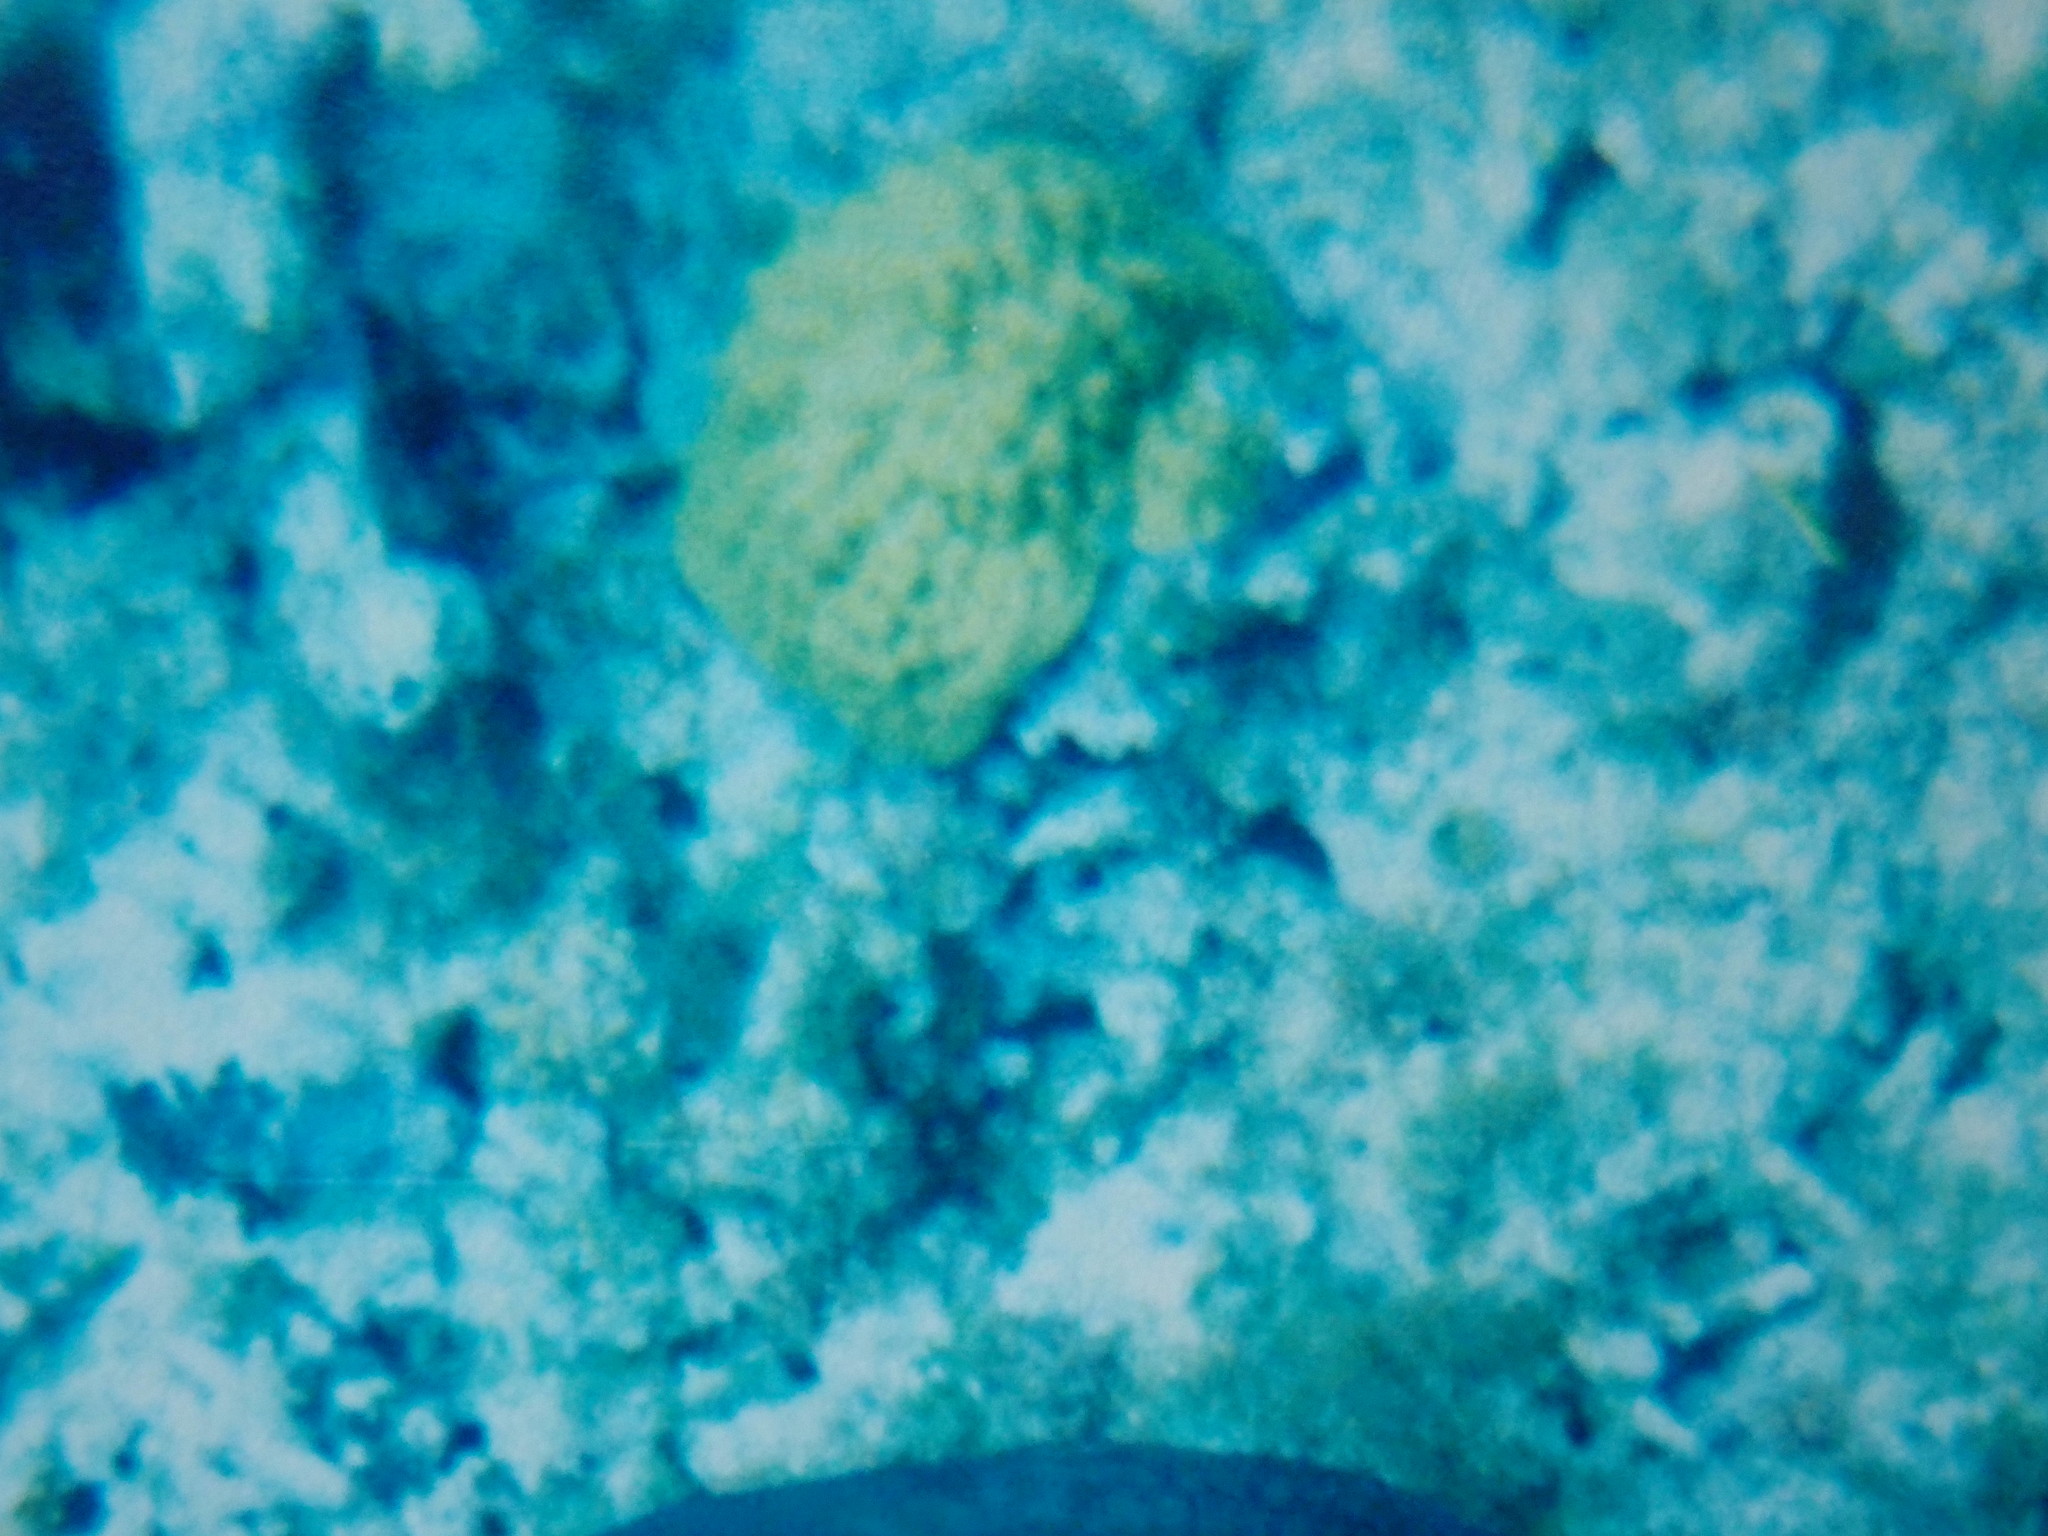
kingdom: Animalia
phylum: Cnidaria
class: Anthozoa
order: Scleractinia
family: Poritidae
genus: Porites
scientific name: Porites astreoides
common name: Mustard hill coral
